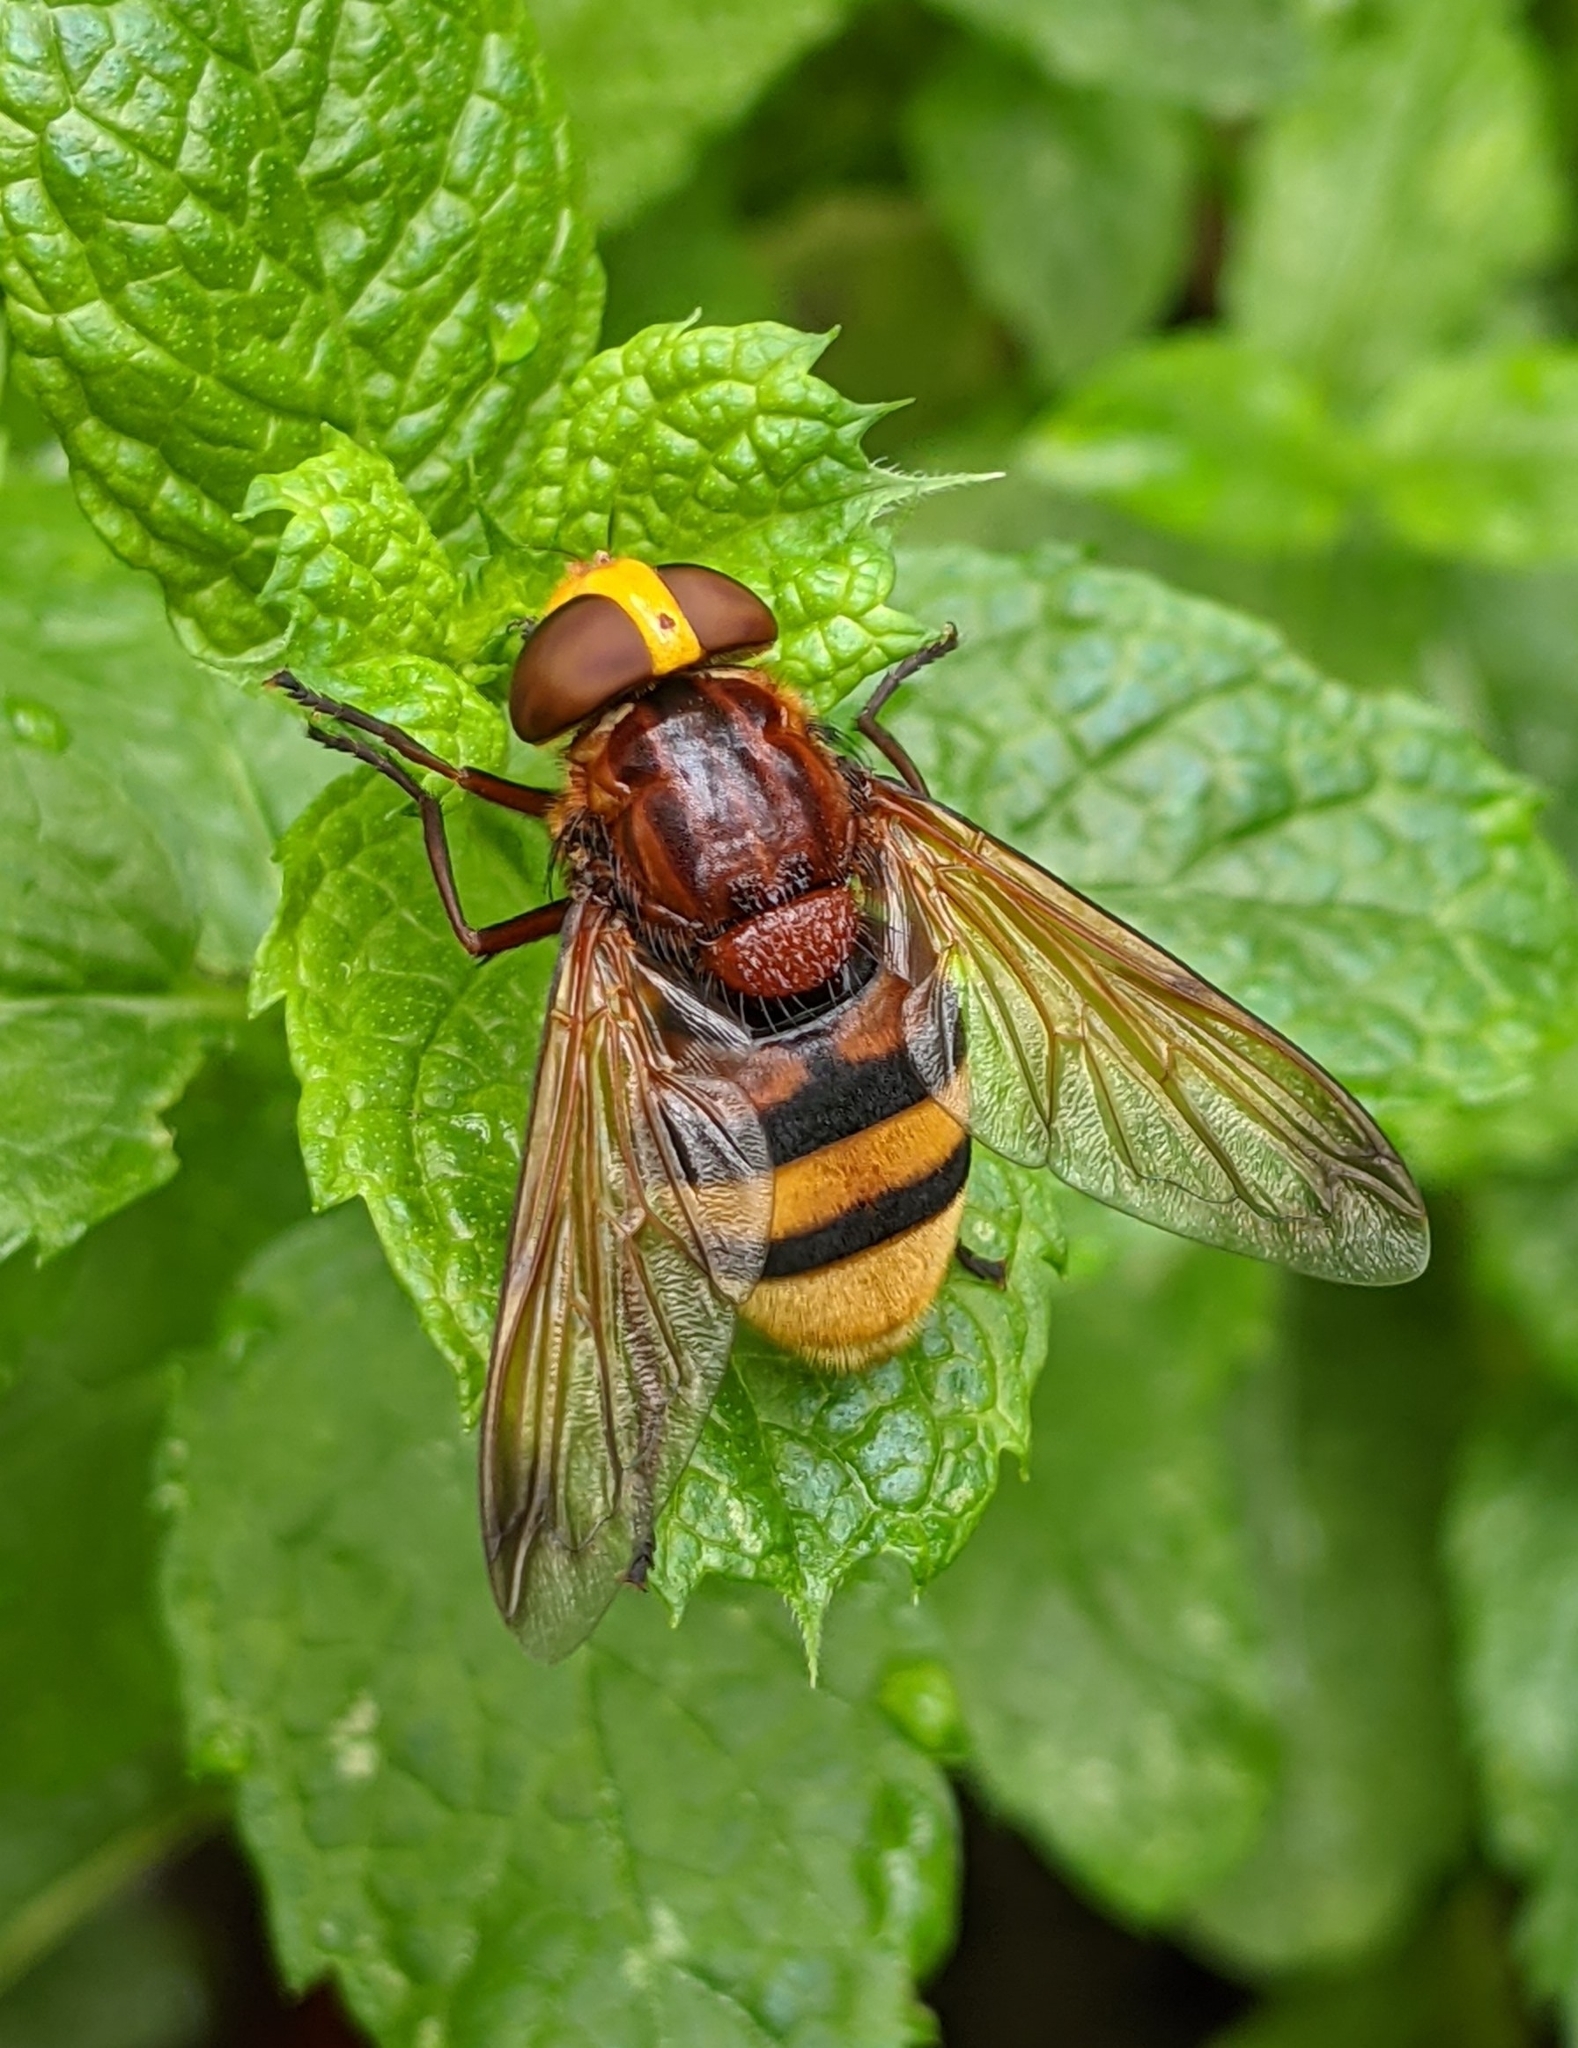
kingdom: Animalia
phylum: Arthropoda
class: Insecta
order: Diptera
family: Syrphidae
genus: Volucella
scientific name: Volucella zonaria
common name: Hornet hoverfly
